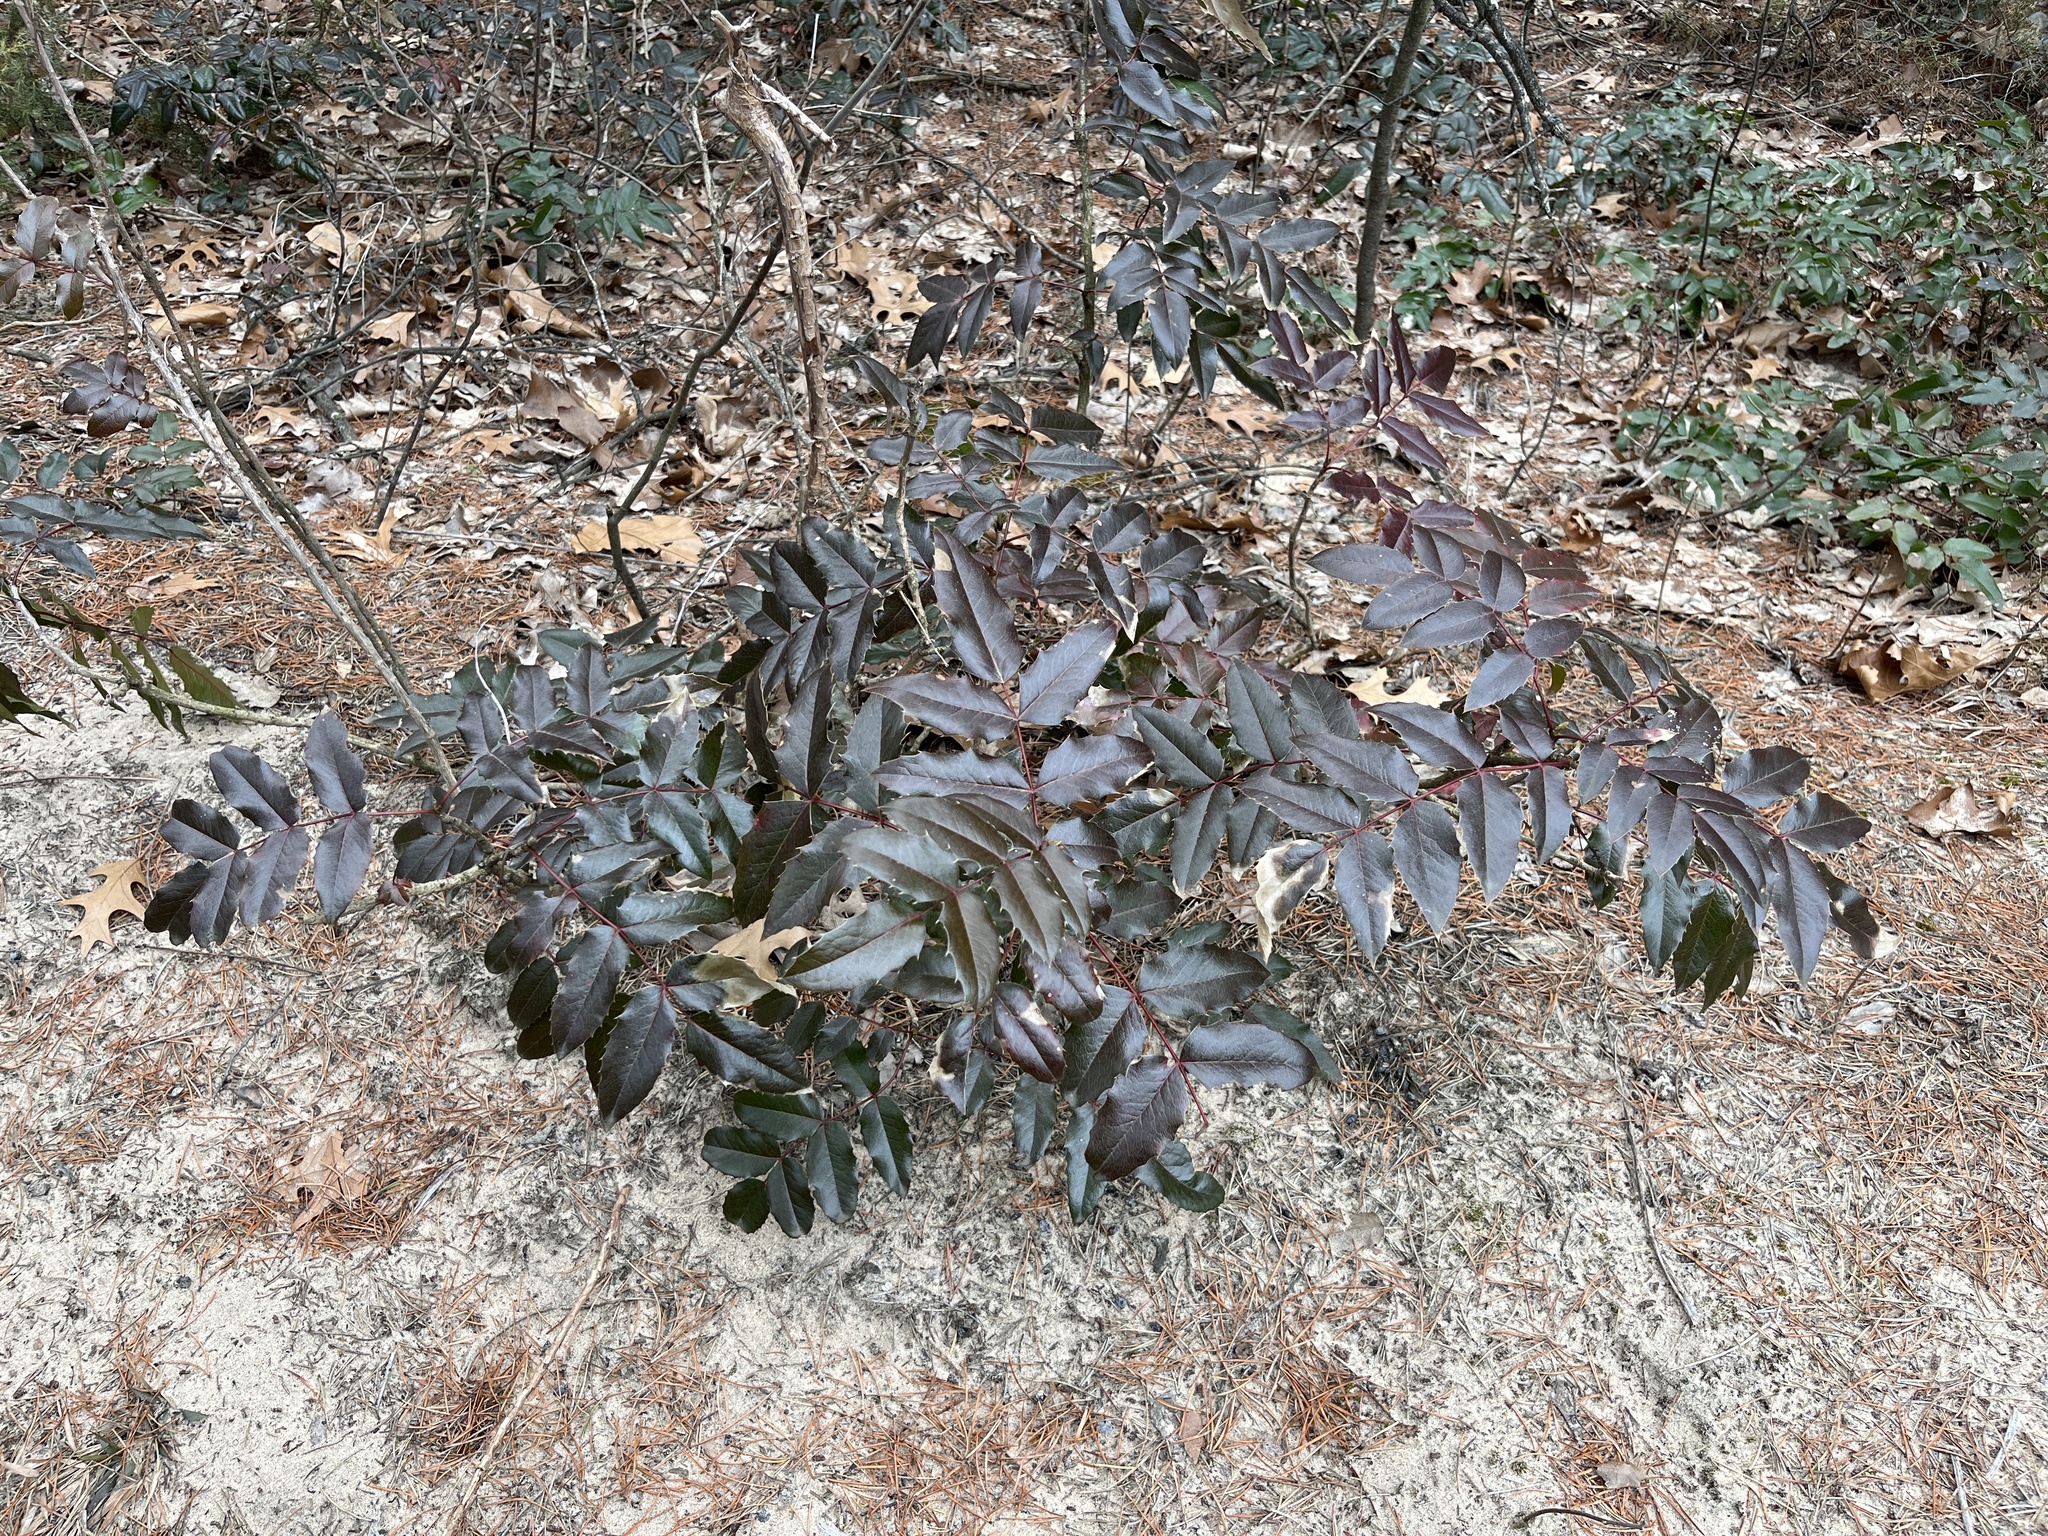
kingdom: Plantae
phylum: Tracheophyta
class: Magnoliopsida
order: Ranunculales
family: Berberidaceae
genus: Mahonia
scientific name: Mahonia aquifolium
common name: Oregon-grape
